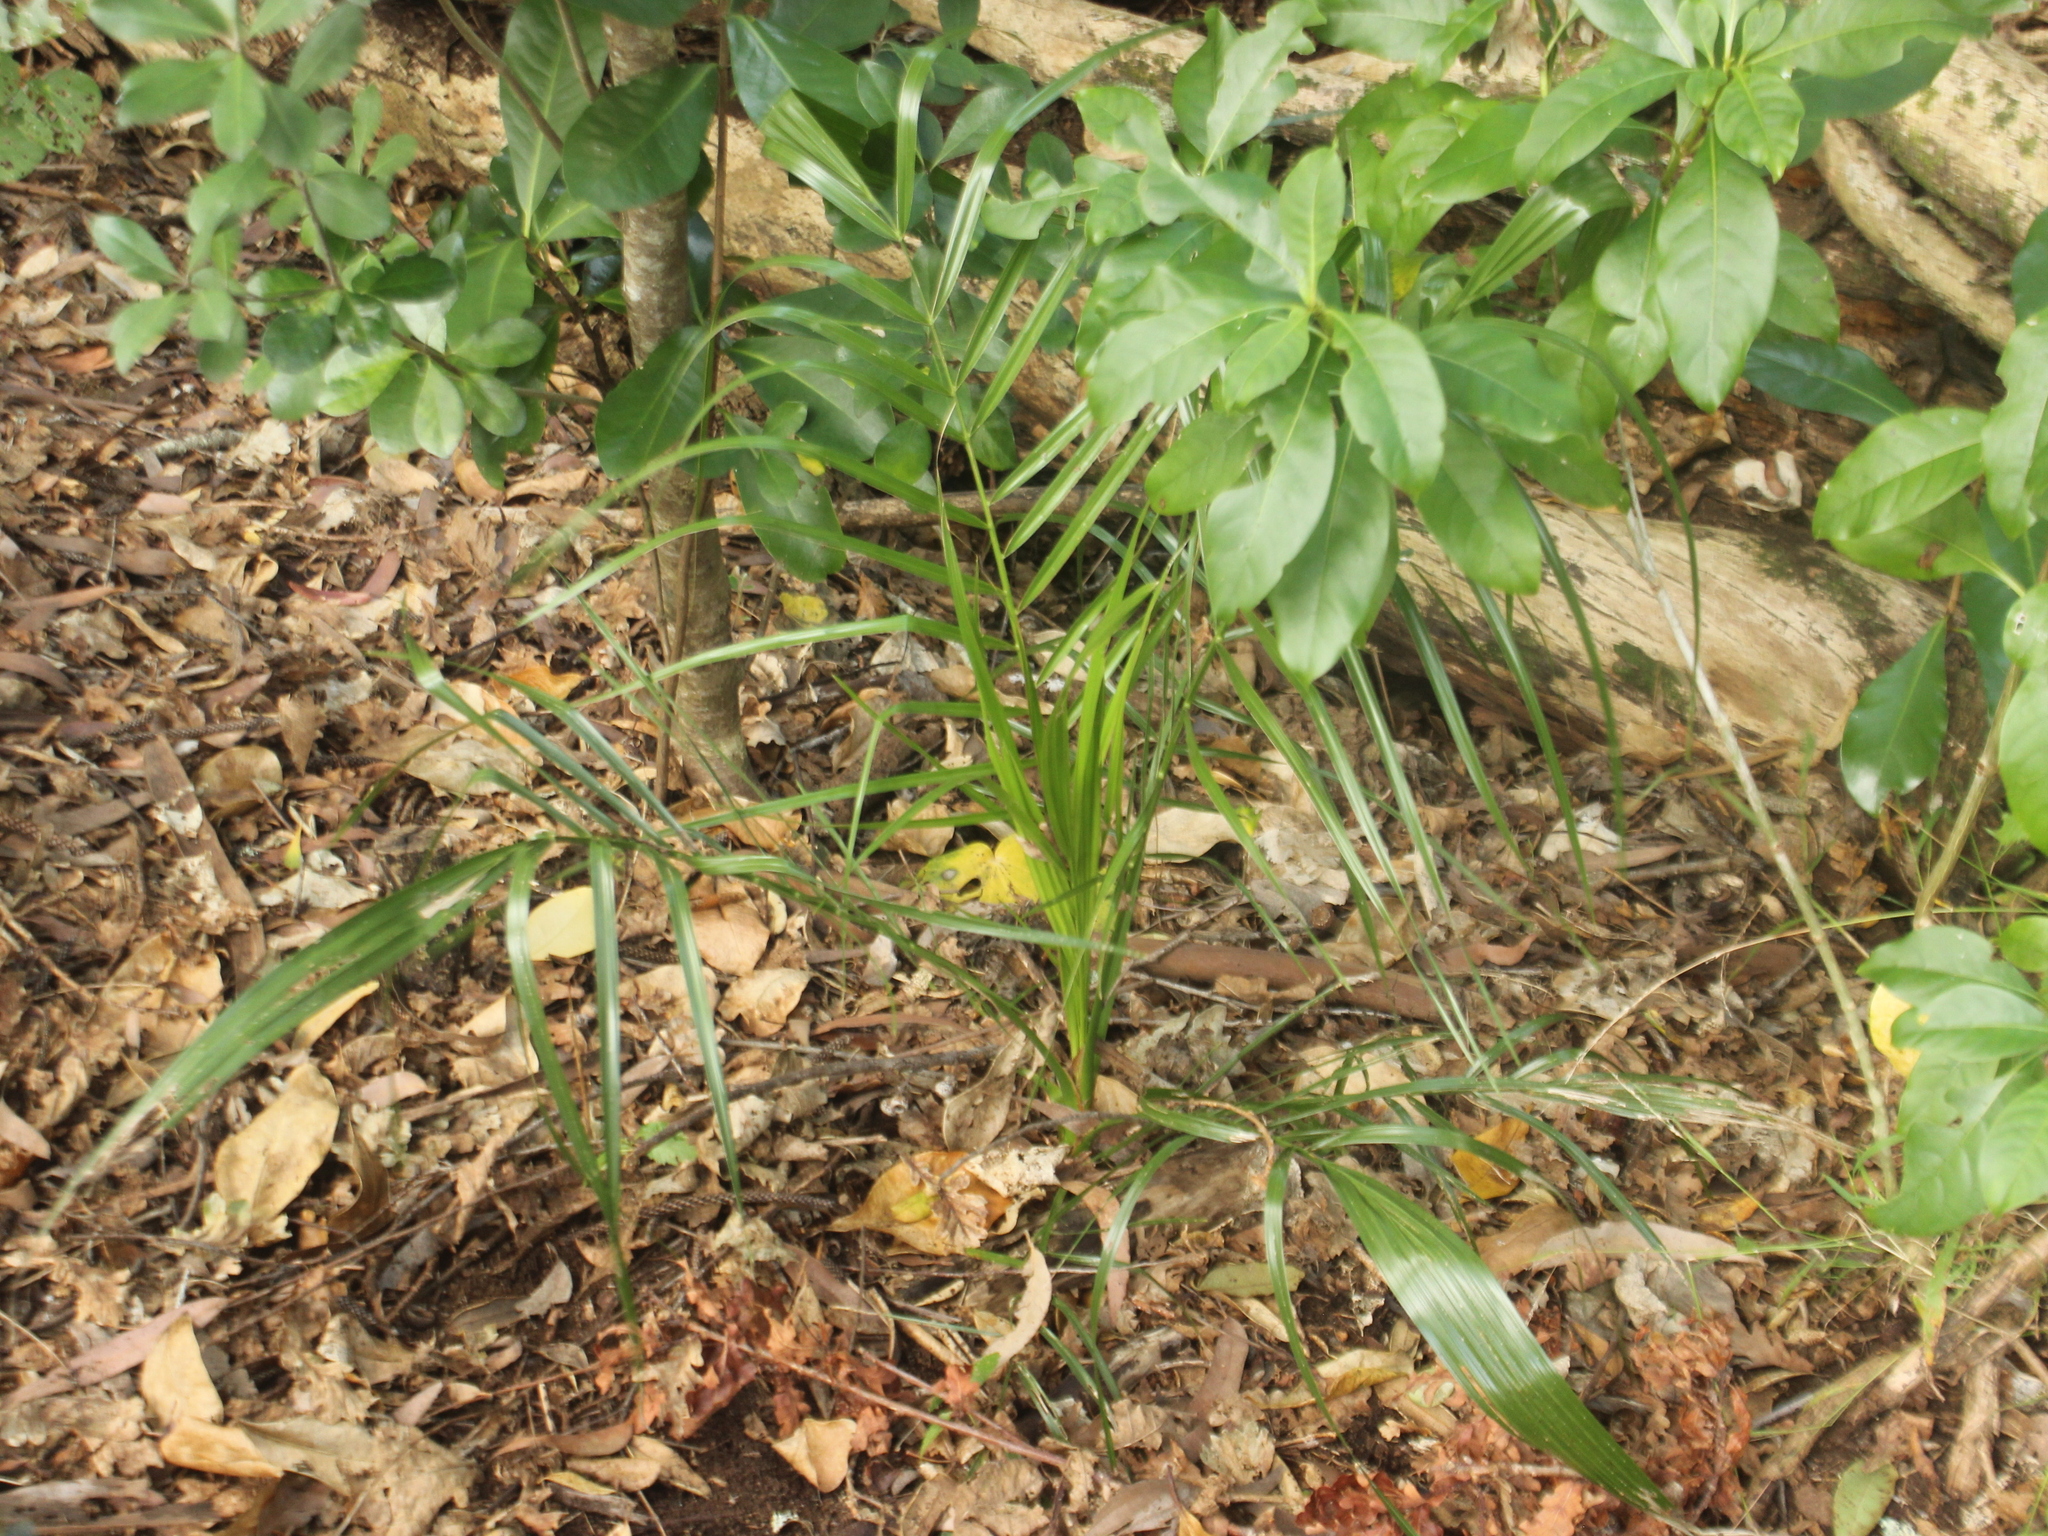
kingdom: Plantae
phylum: Tracheophyta
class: Liliopsida
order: Arecales
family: Arecaceae
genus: Phoenix
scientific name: Phoenix canariensis
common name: Canary island date palm
